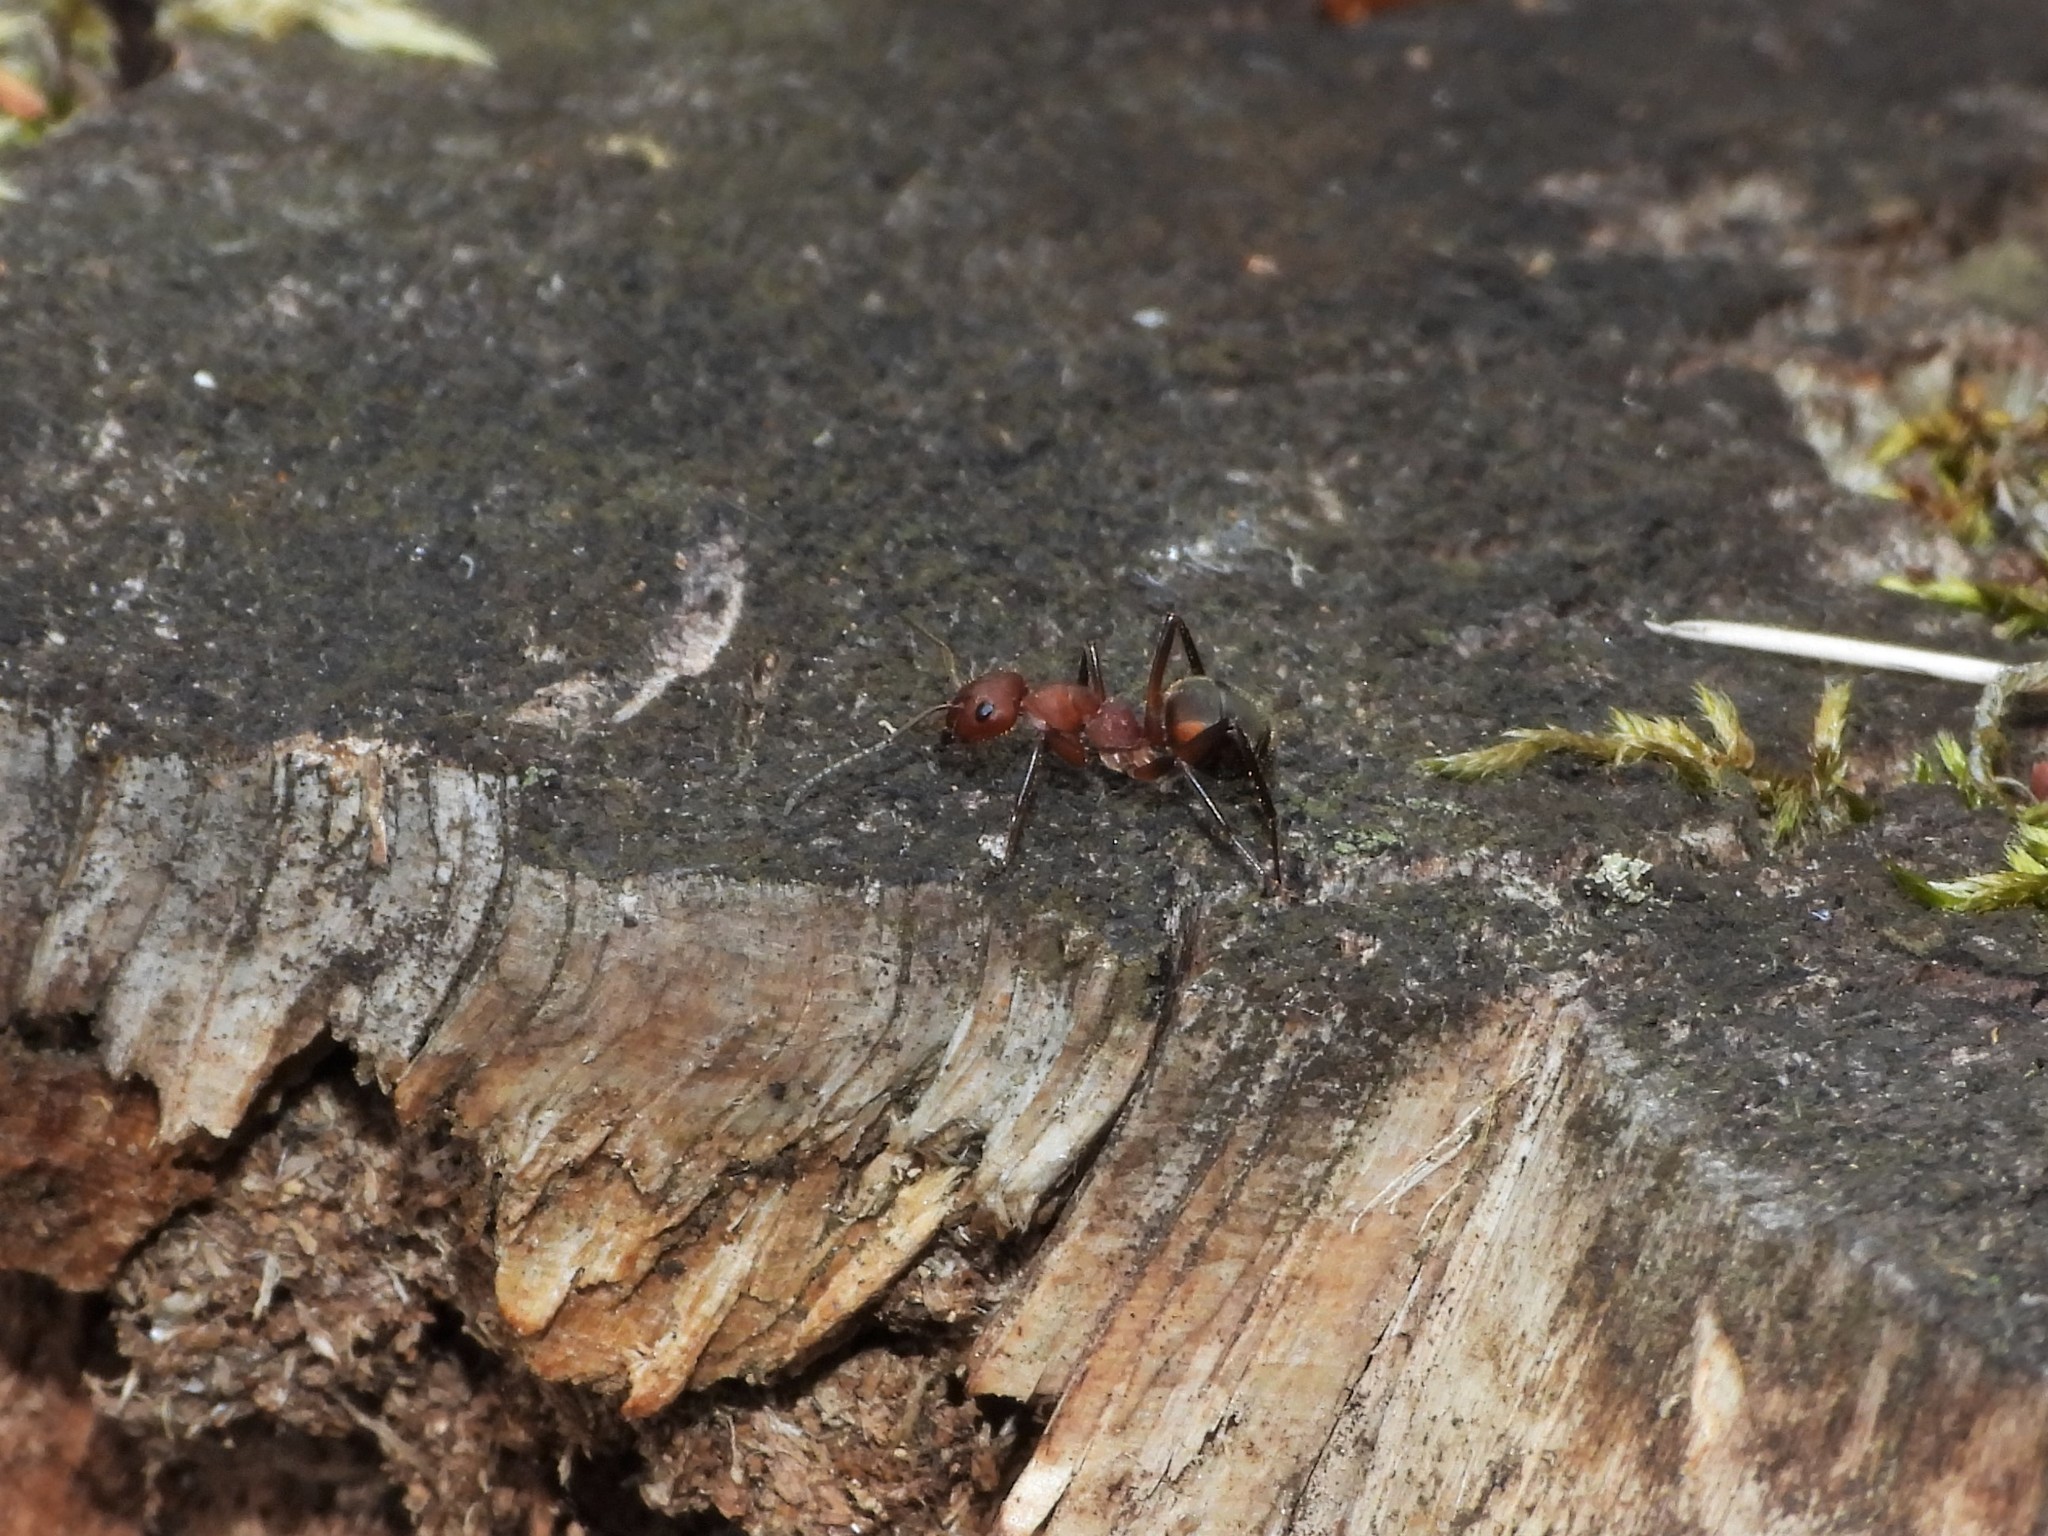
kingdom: Animalia
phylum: Arthropoda
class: Insecta
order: Hymenoptera
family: Formicidae
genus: Formica
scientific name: Formica truncorum
